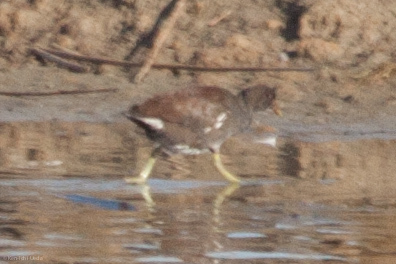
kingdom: Animalia
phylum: Chordata
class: Aves
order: Gruiformes
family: Rallidae
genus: Gallinula
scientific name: Gallinula chloropus
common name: Common moorhen
